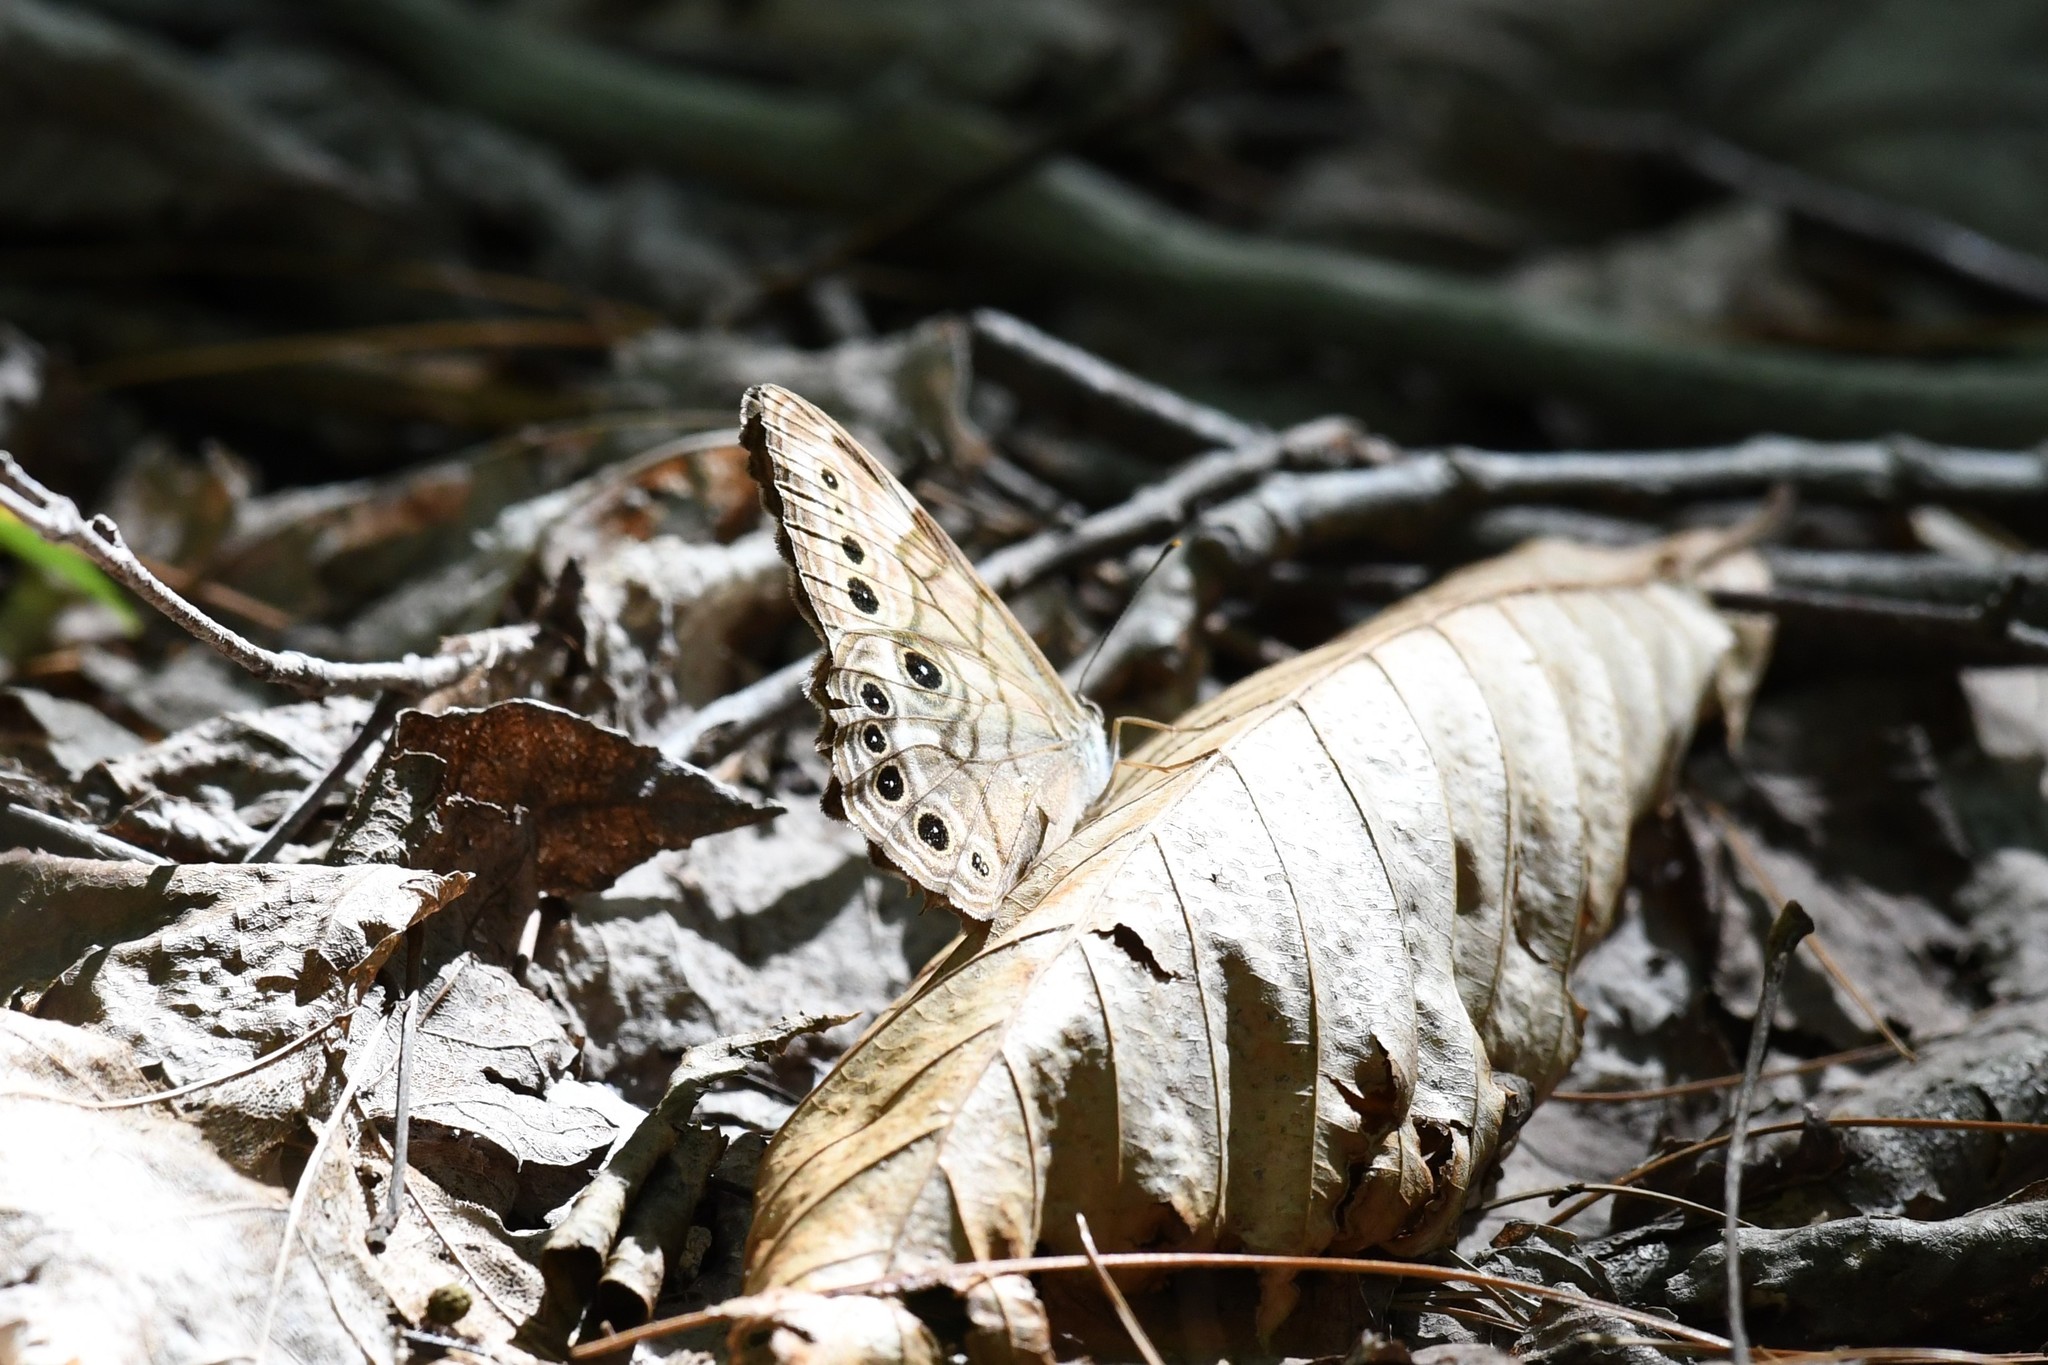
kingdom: Animalia
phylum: Arthropoda
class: Insecta
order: Lepidoptera
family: Nymphalidae
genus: Lethe
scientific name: Lethe anthedon
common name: Northern pearly-eye
